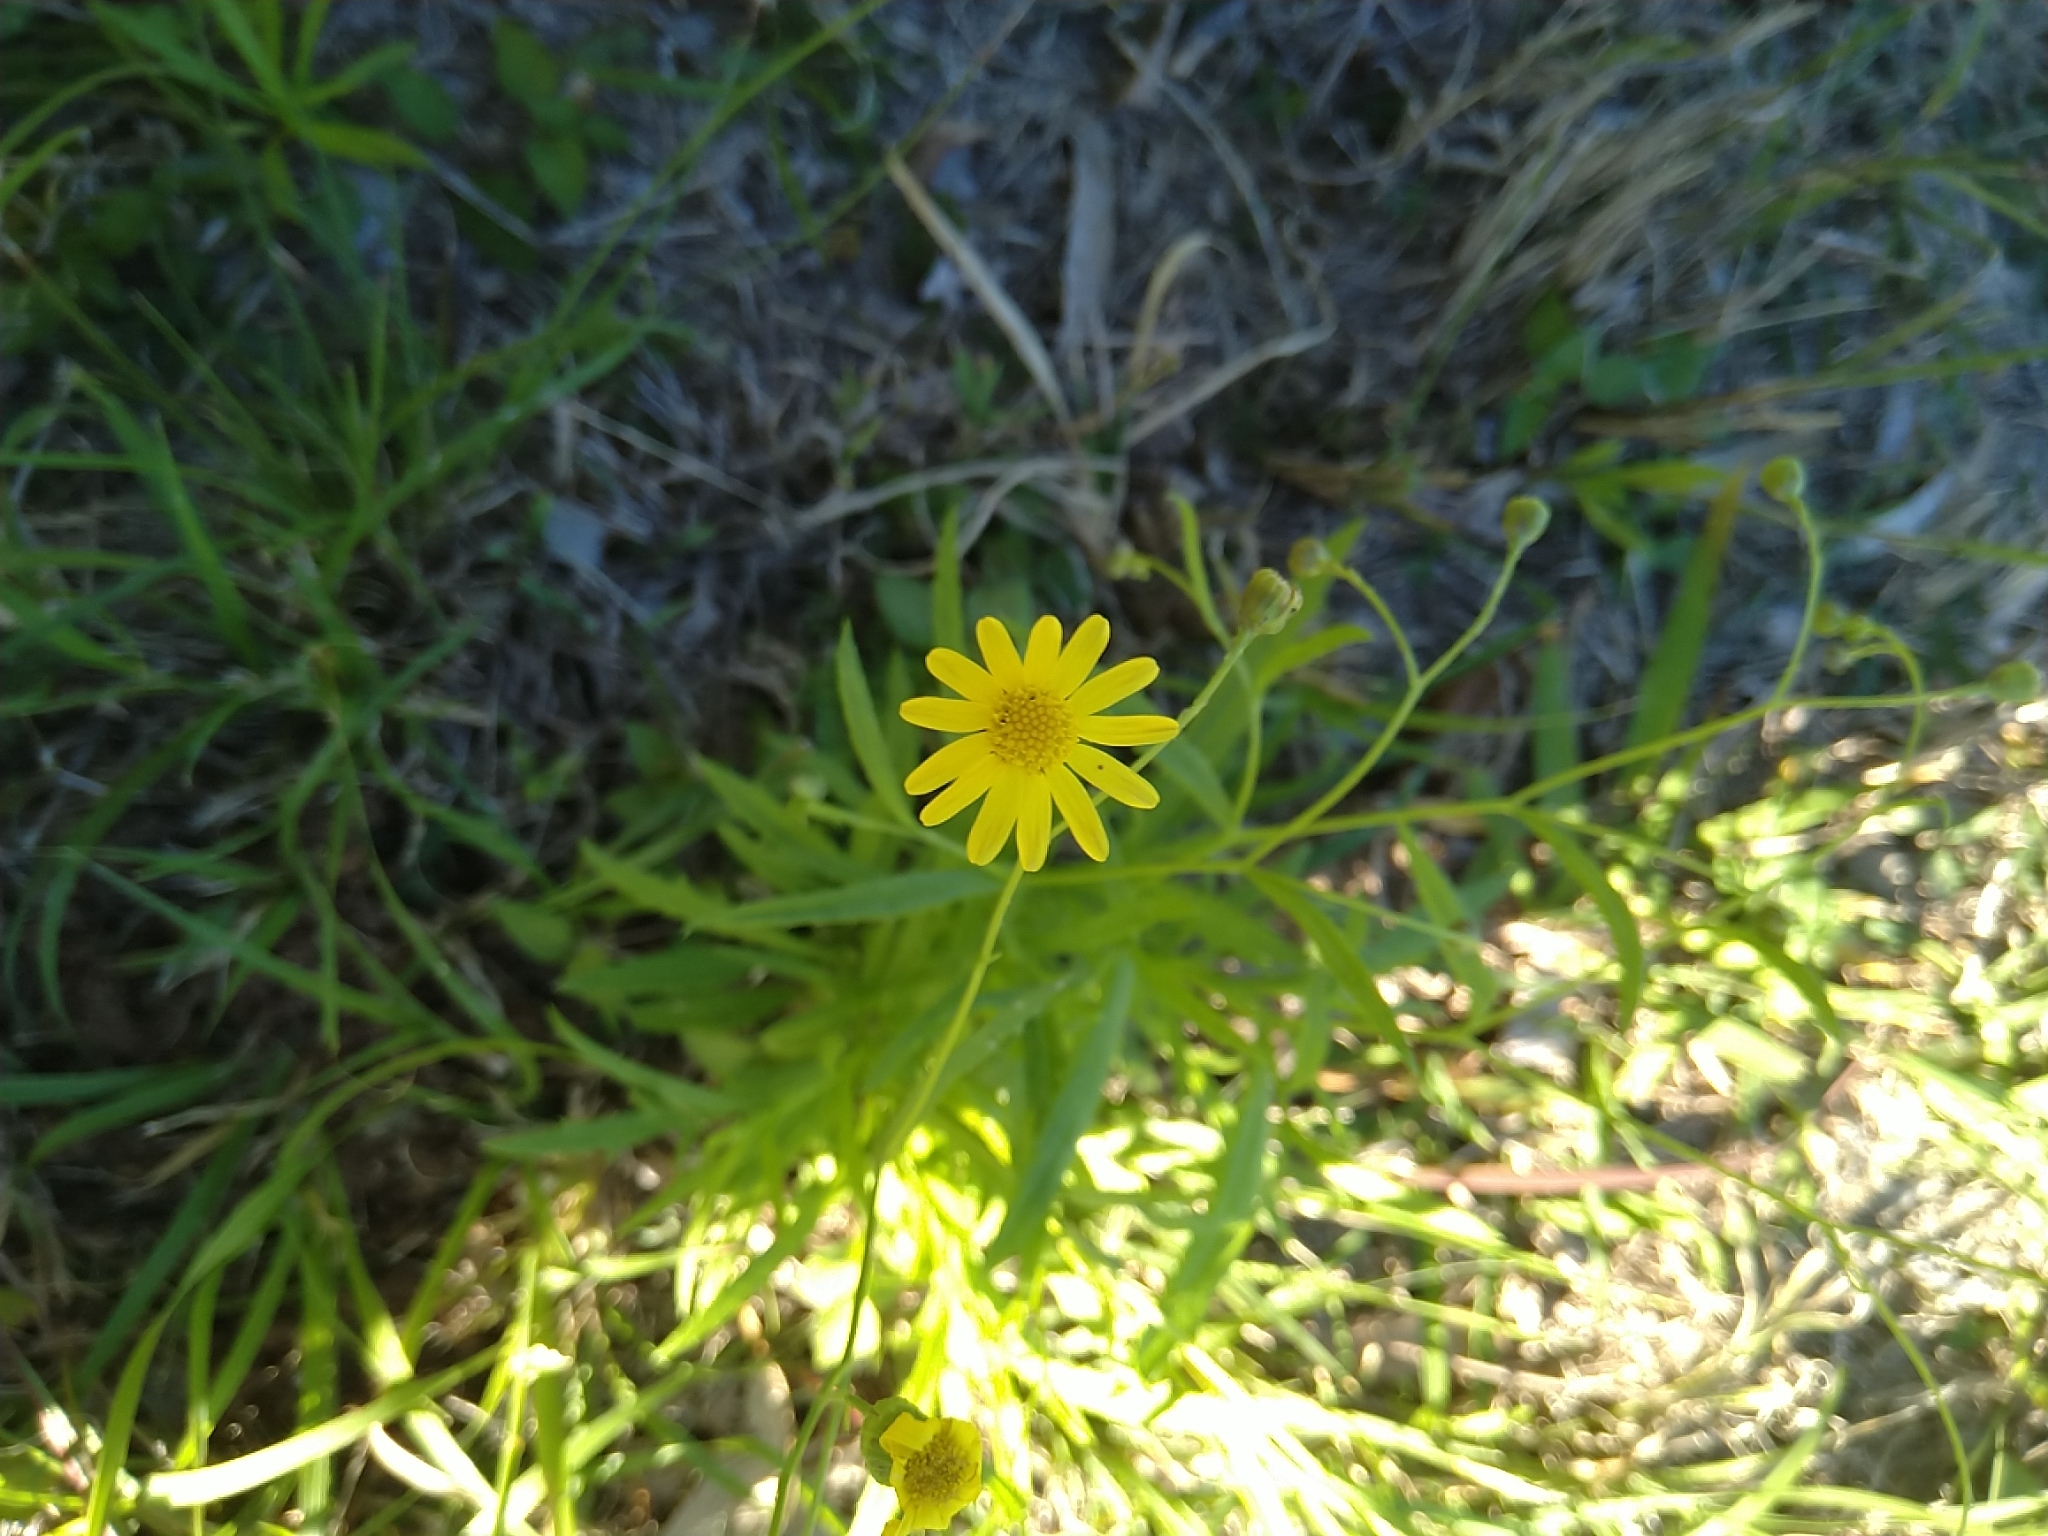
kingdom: Plantae
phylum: Tracheophyta
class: Magnoliopsida
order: Asterales
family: Asteraceae
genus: Senecio
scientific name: Senecio madagascariensis
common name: Madagascar ragwort
